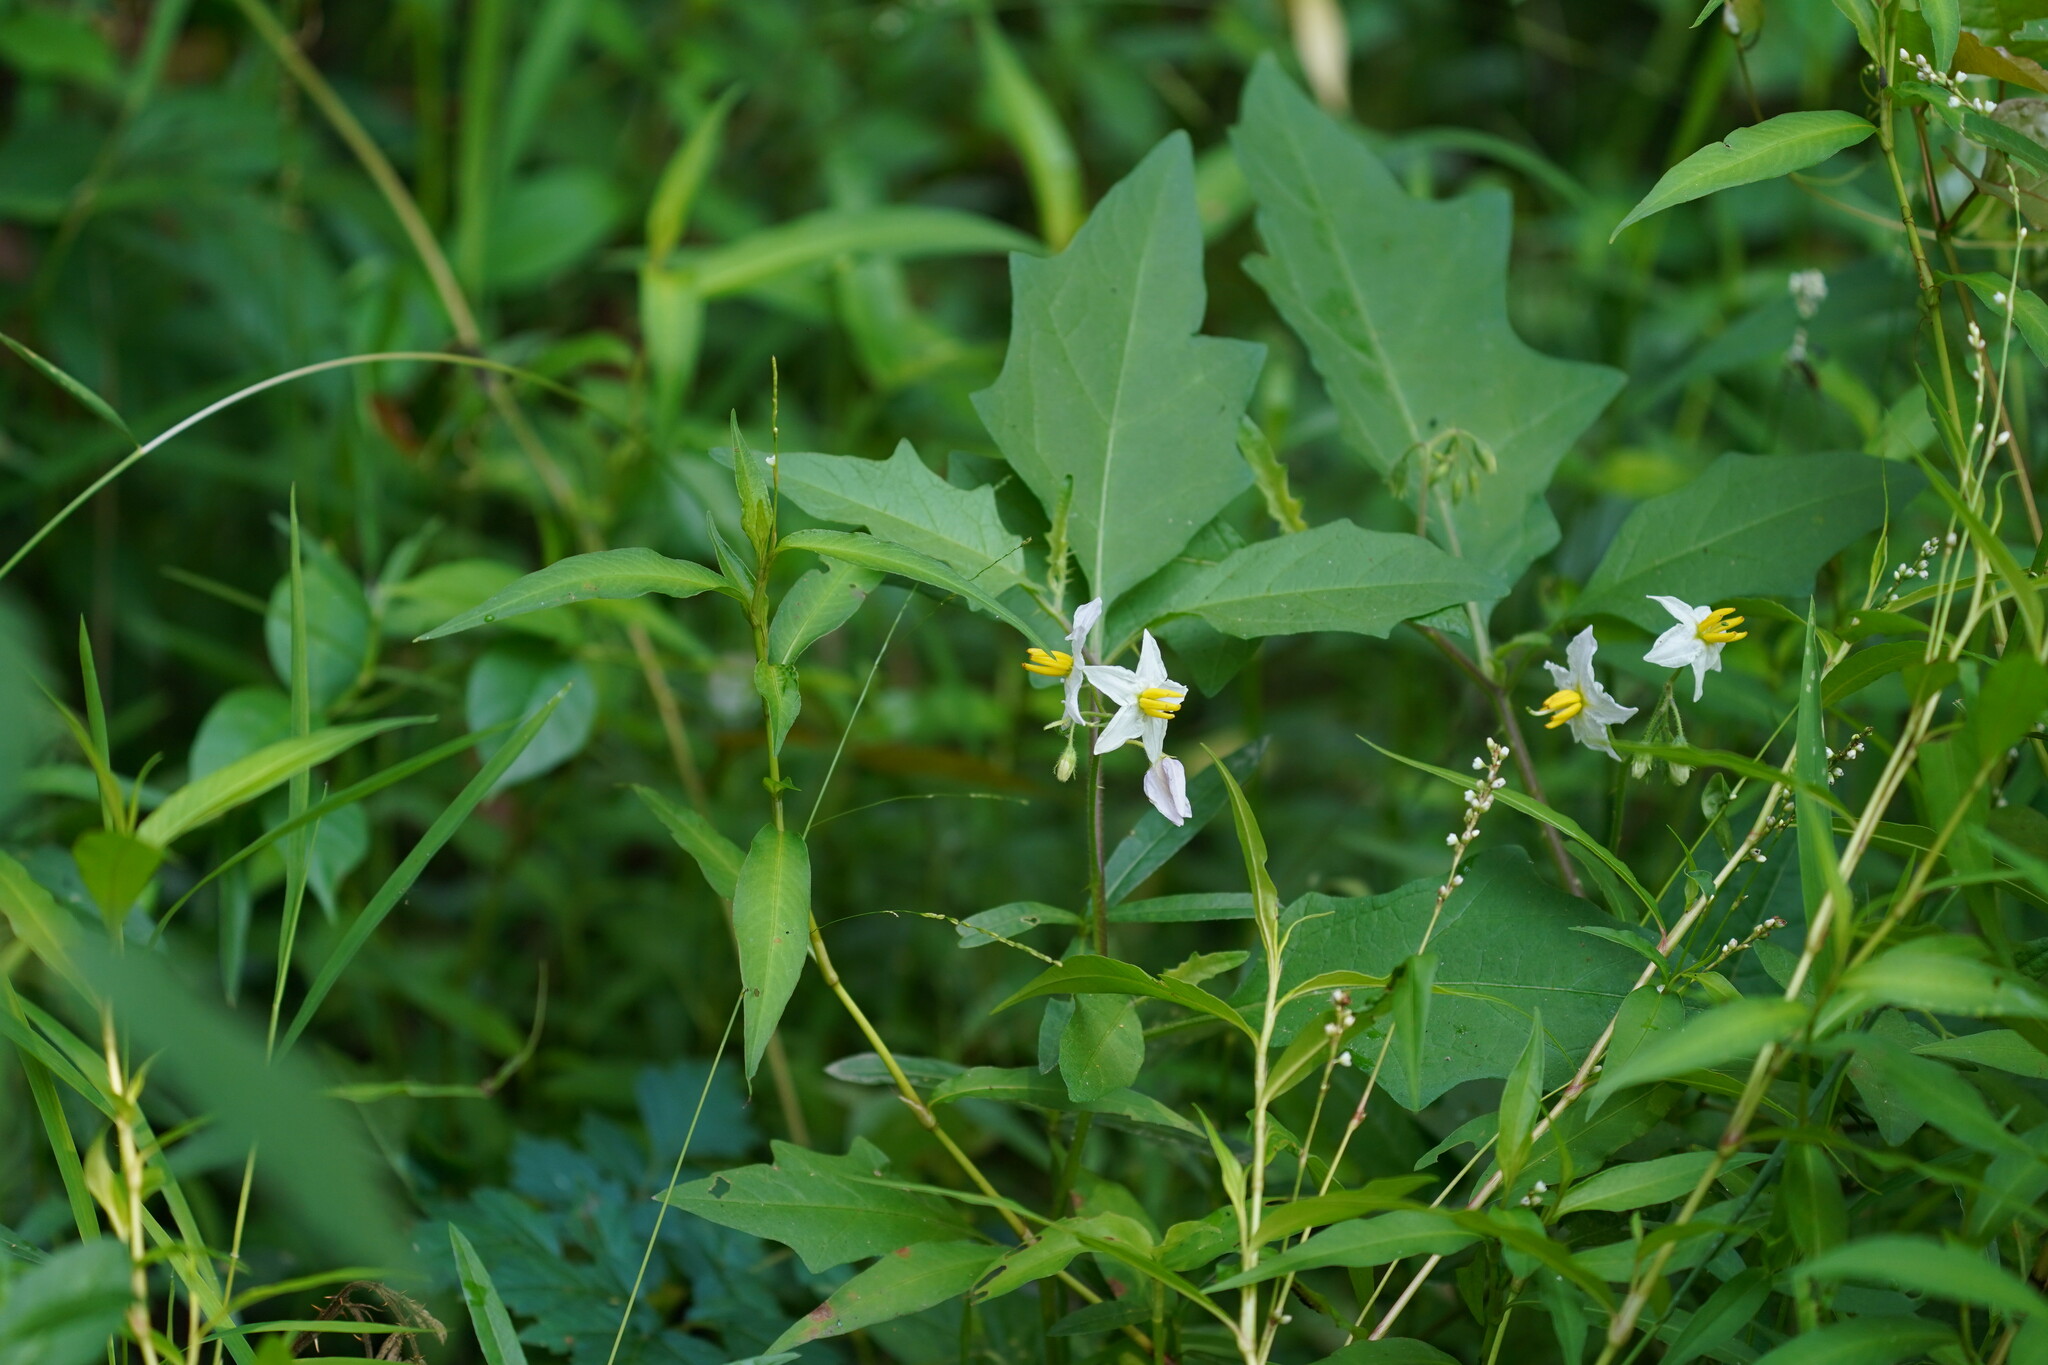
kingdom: Plantae
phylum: Tracheophyta
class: Magnoliopsida
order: Solanales
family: Solanaceae
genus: Solanum
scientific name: Solanum carolinense
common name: Horse-nettle
